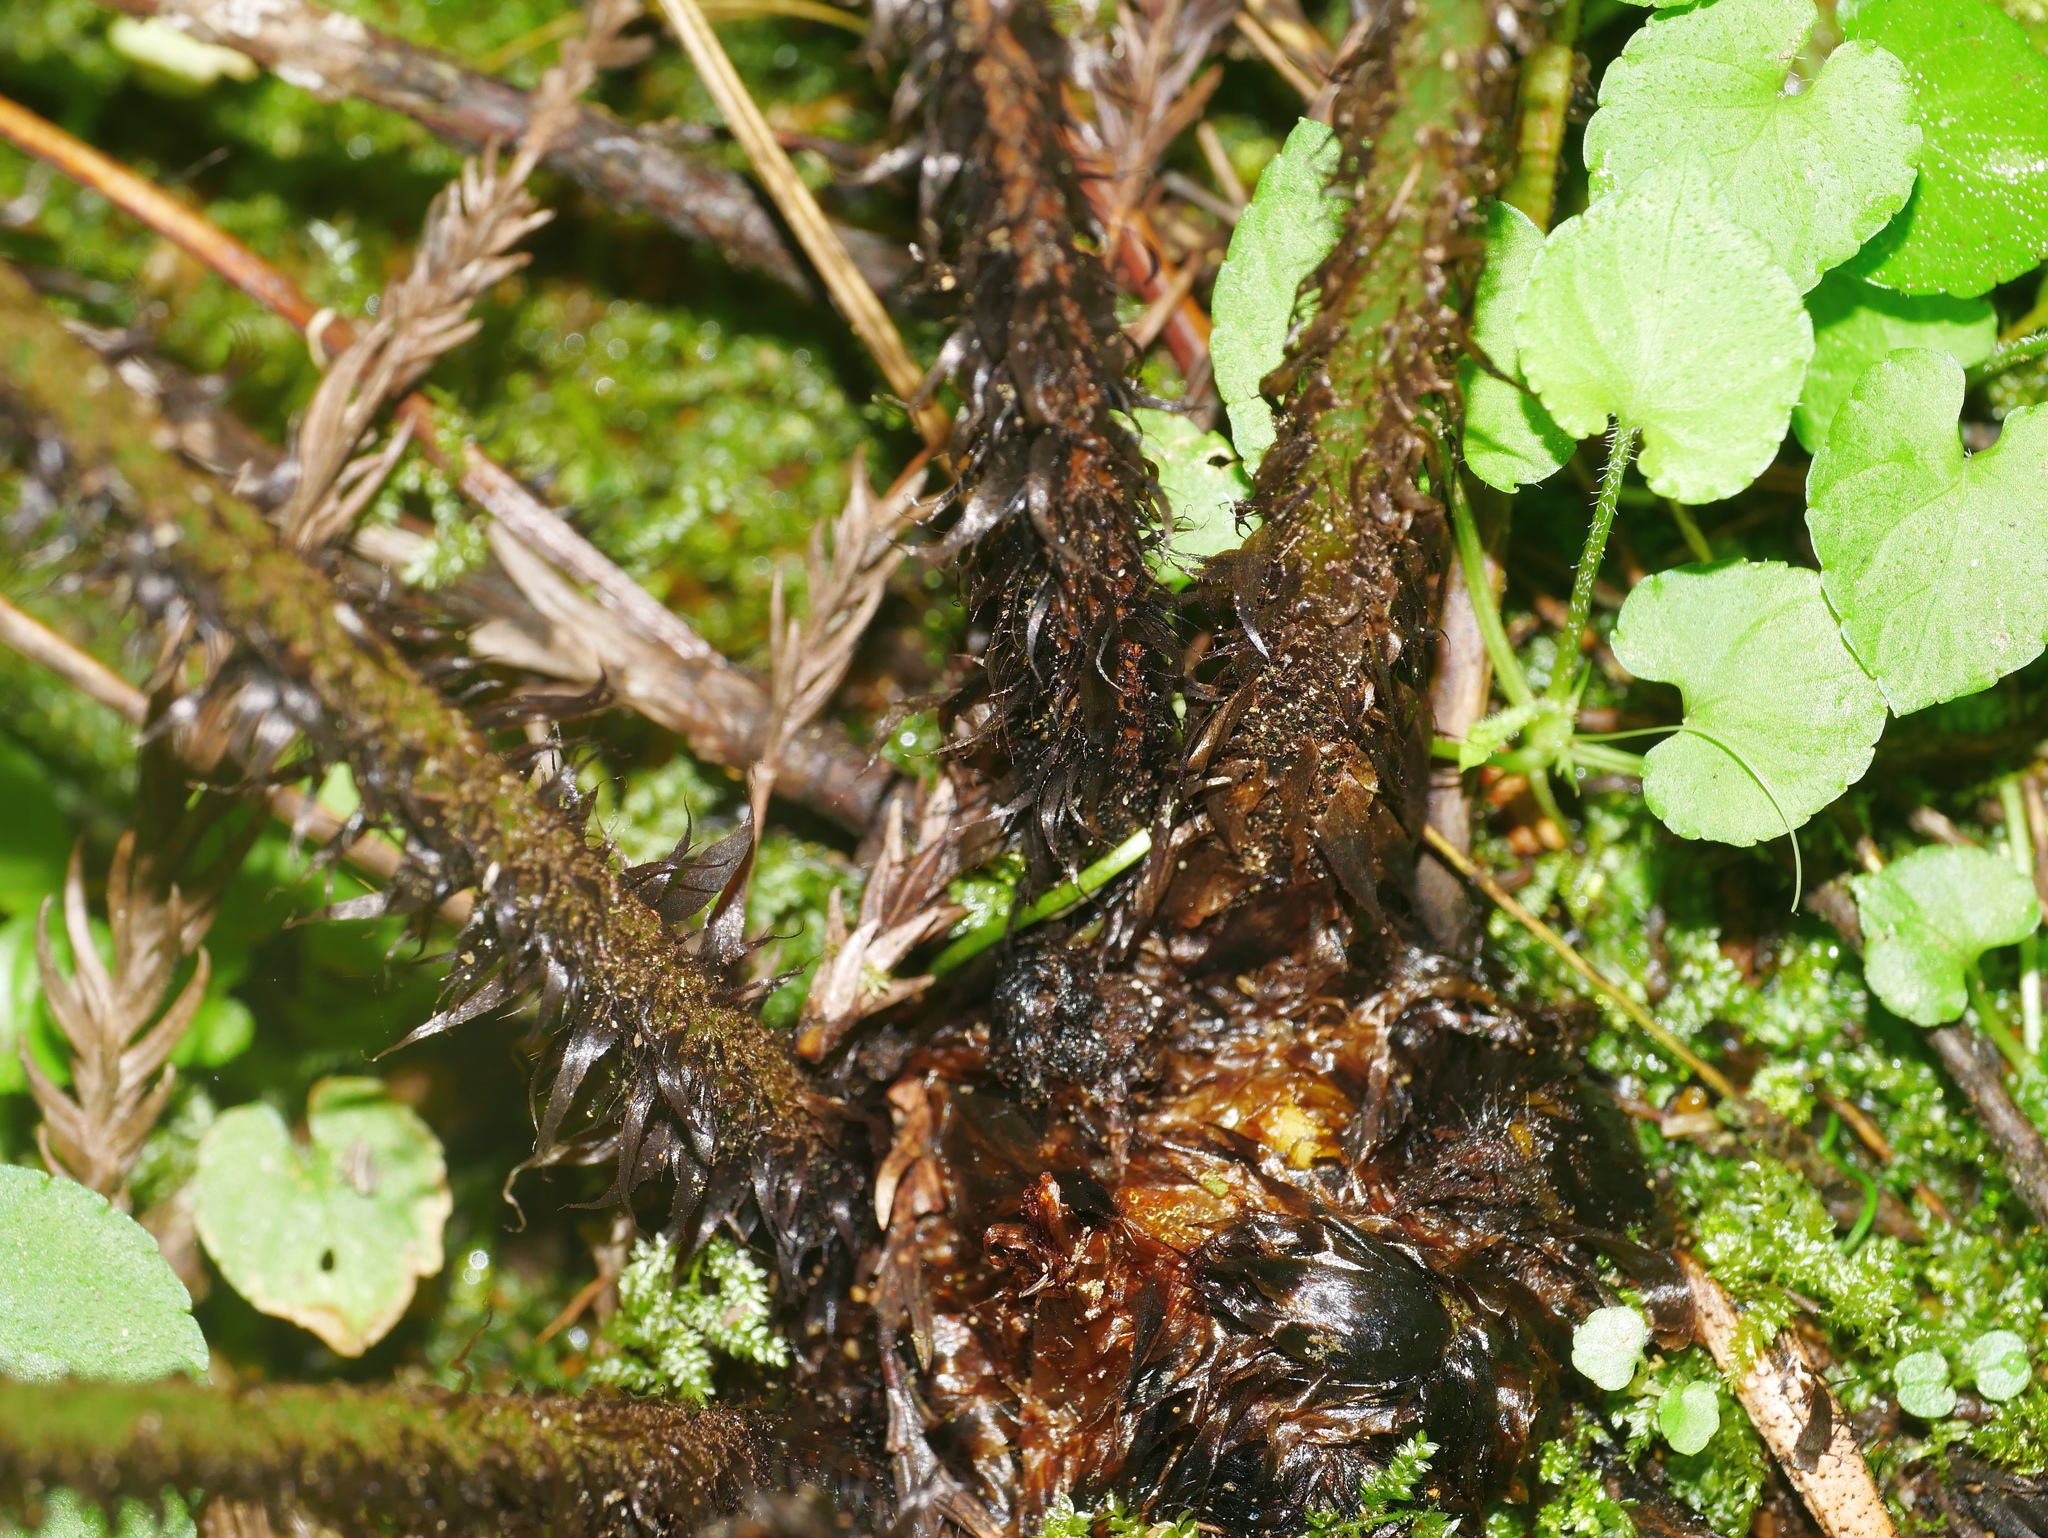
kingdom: Plantae
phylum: Tracheophyta
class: Polypodiopsida
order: Polypodiales
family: Dryopteridaceae
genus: Dryopteris
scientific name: Dryopteris namegatae
